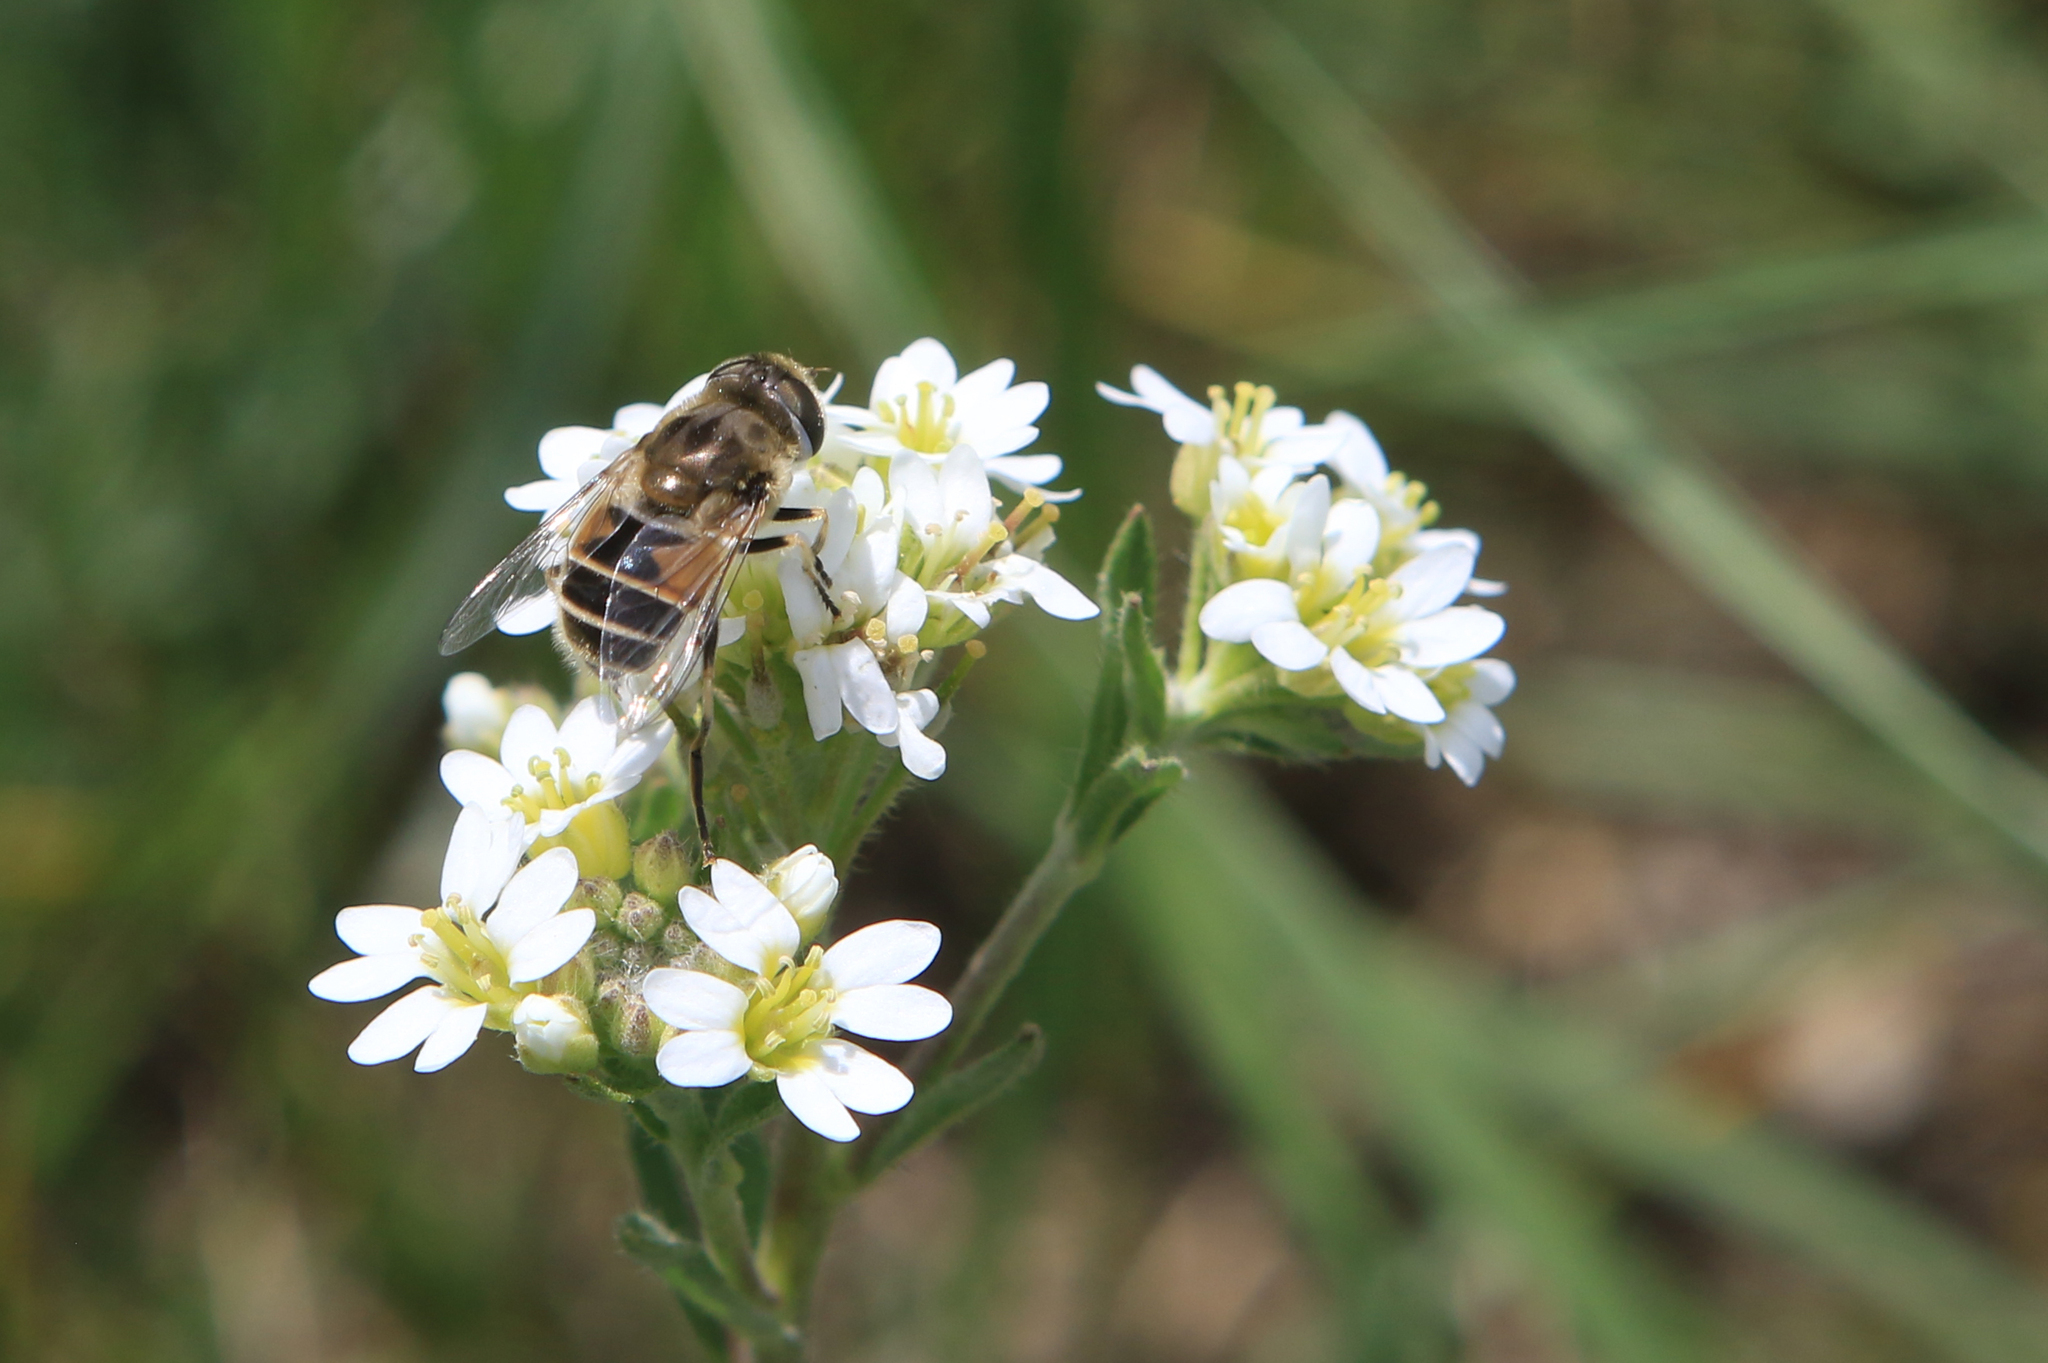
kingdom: Animalia
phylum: Arthropoda
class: Insecta
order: Diptera
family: Syrphidae
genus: Eristalis
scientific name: Eristalis arbustorum
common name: Hover fly
